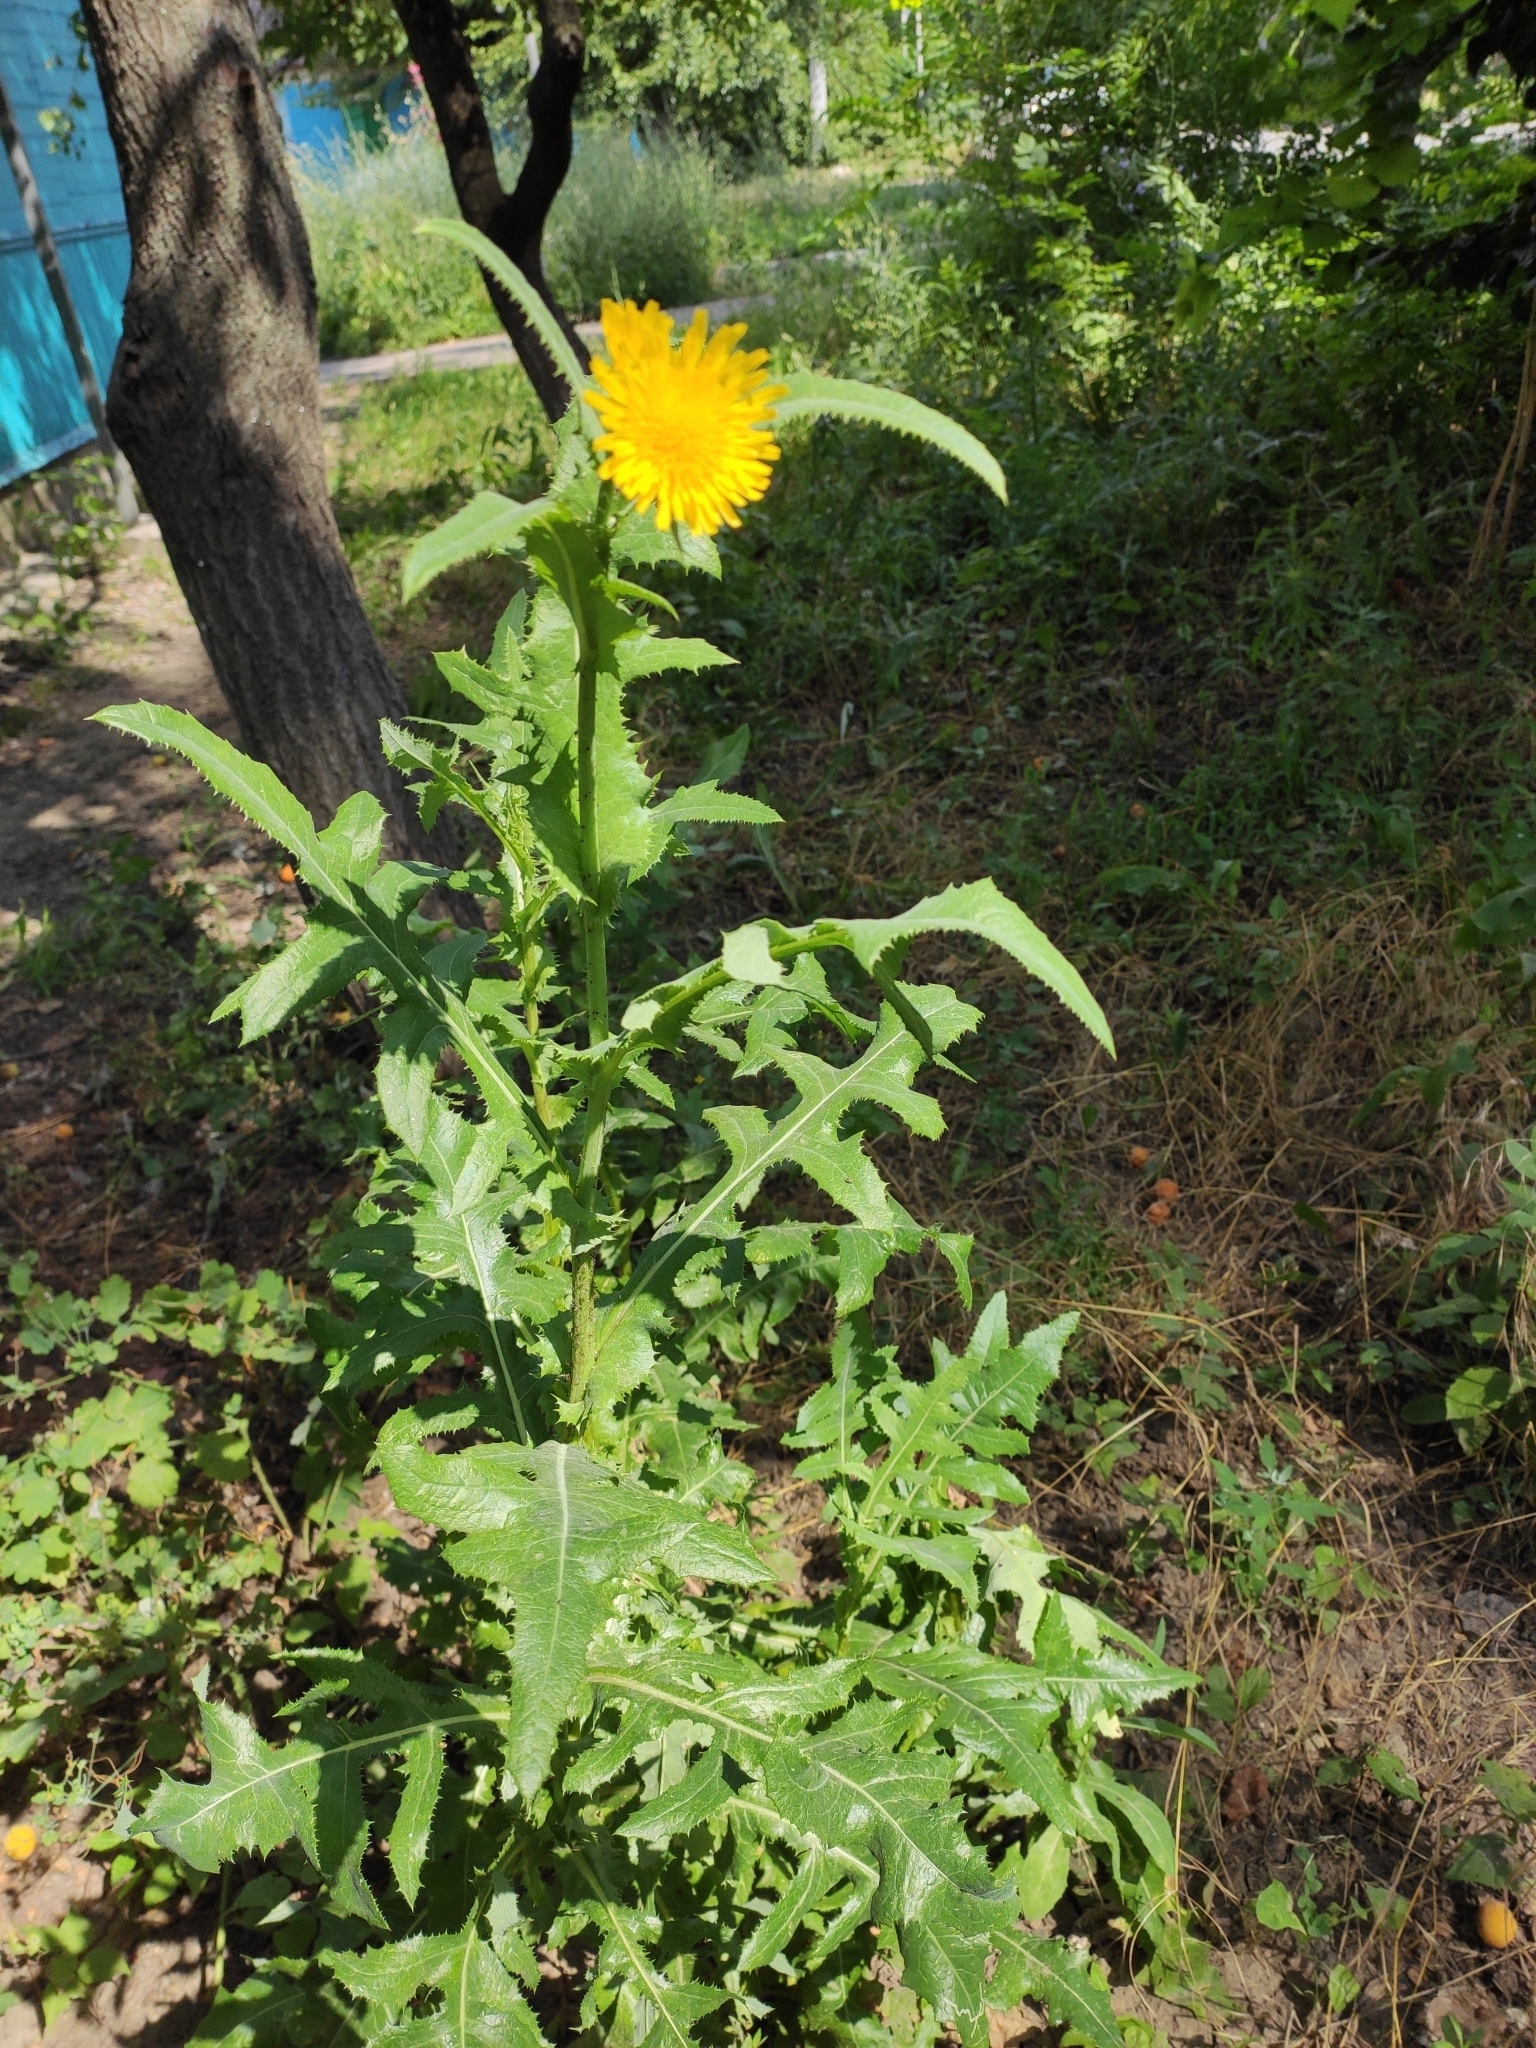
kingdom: Plantae
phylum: Tracheophyta
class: Magnoliopsida
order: Asterales
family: Asteraceae
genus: Sonchus
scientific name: Sonchus arvensis
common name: Perennial sow-thistle
